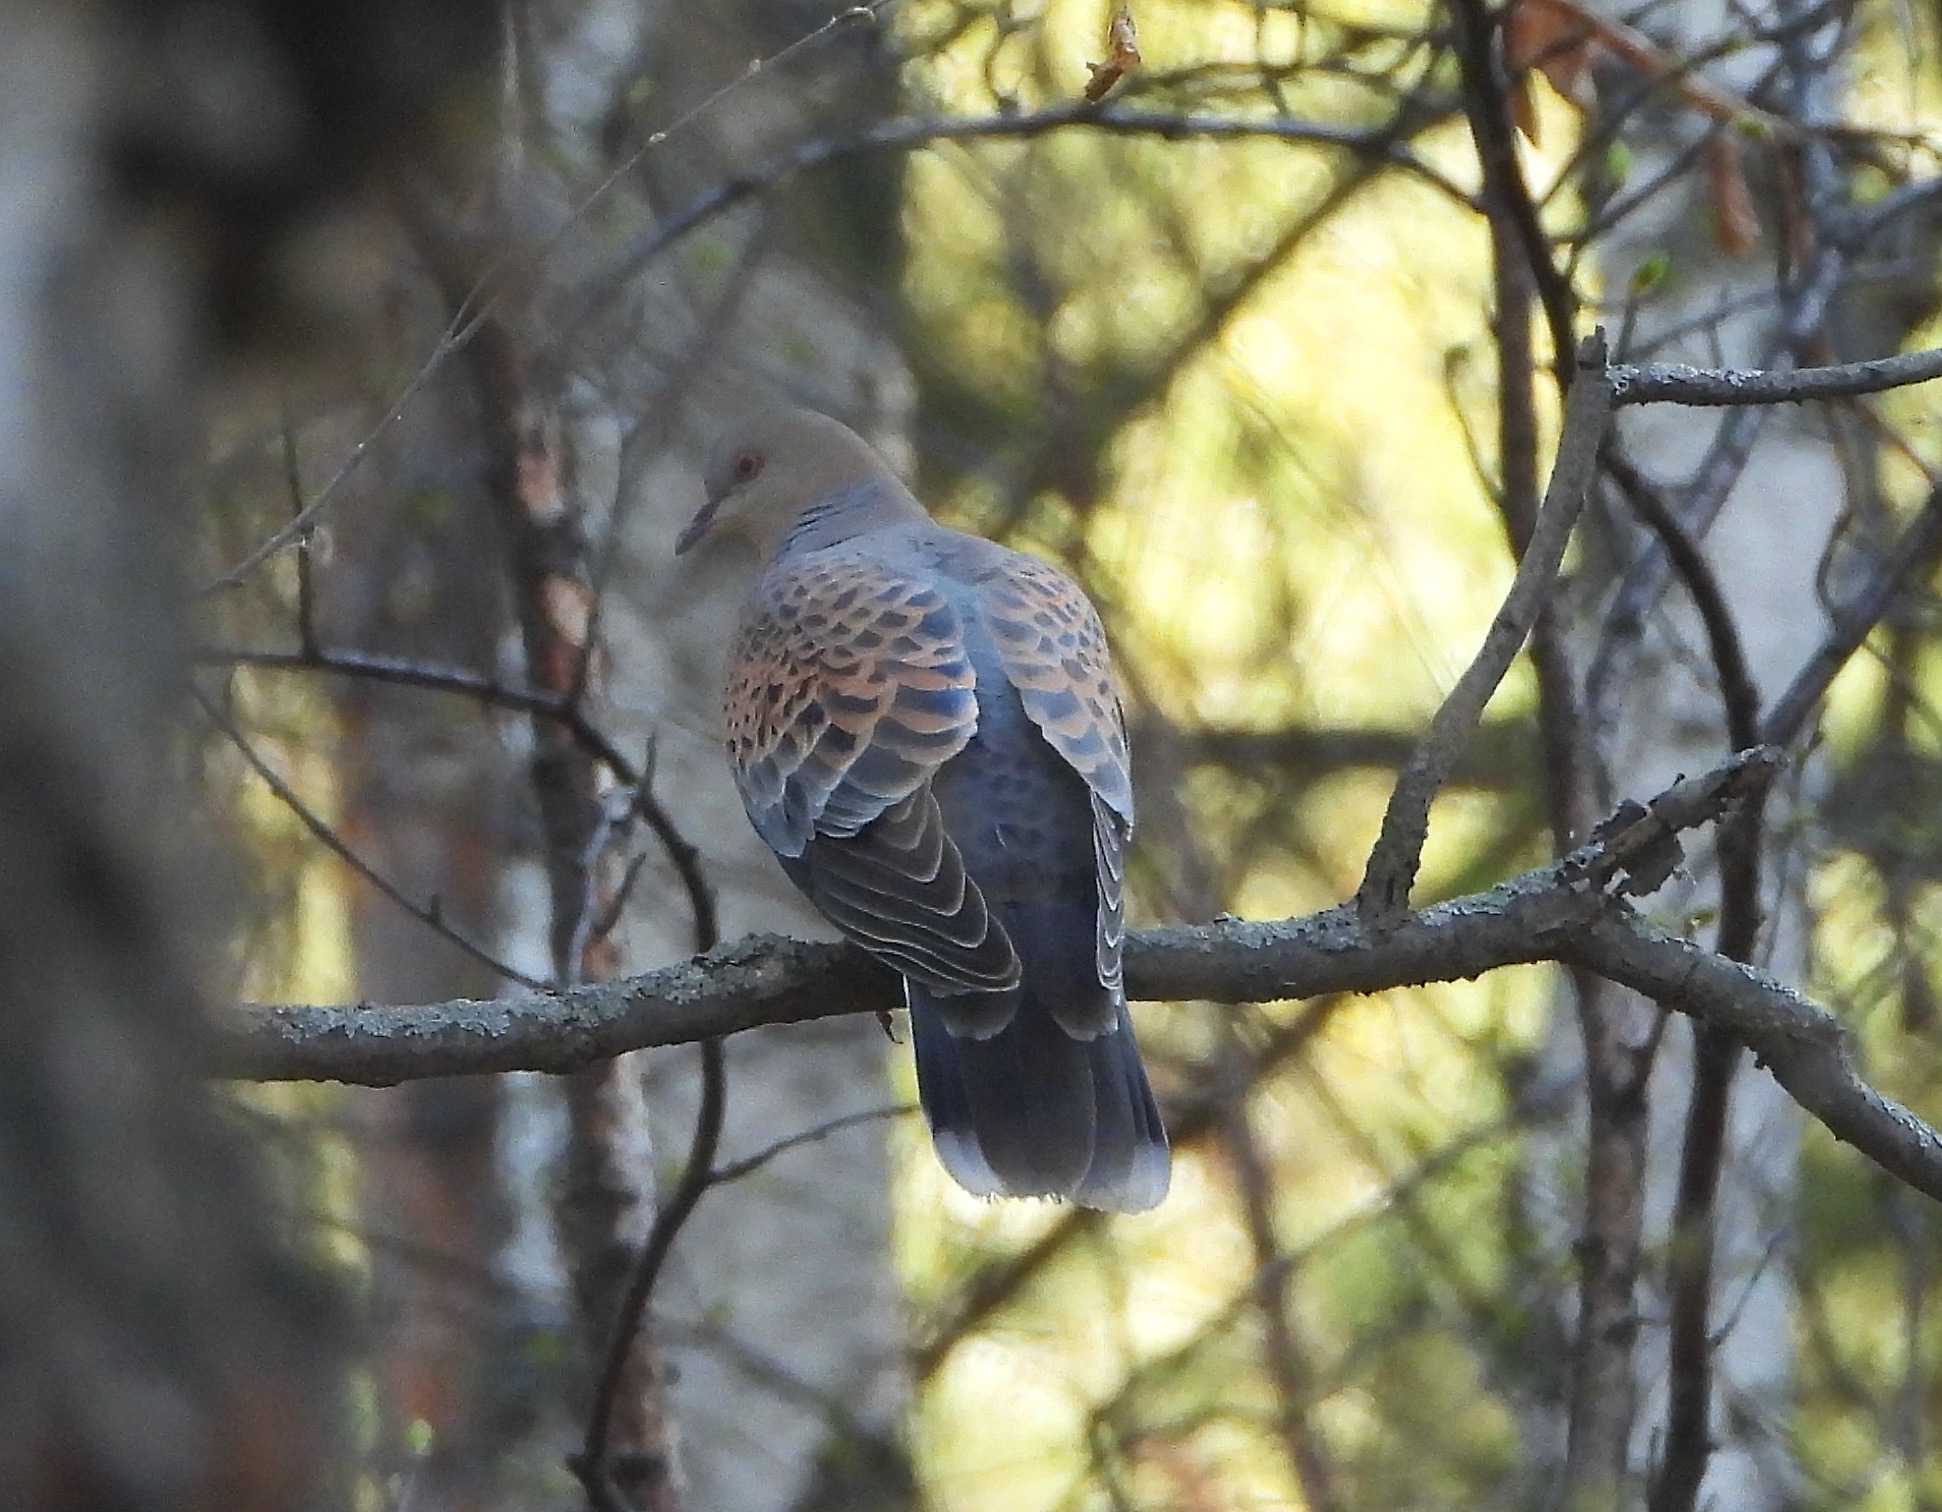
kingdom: Animalia
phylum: Chordata
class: Aves
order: Columbiformes
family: Columbidae
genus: Streptopelia
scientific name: Streptopelia orientalis
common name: Oriental turtle dove
